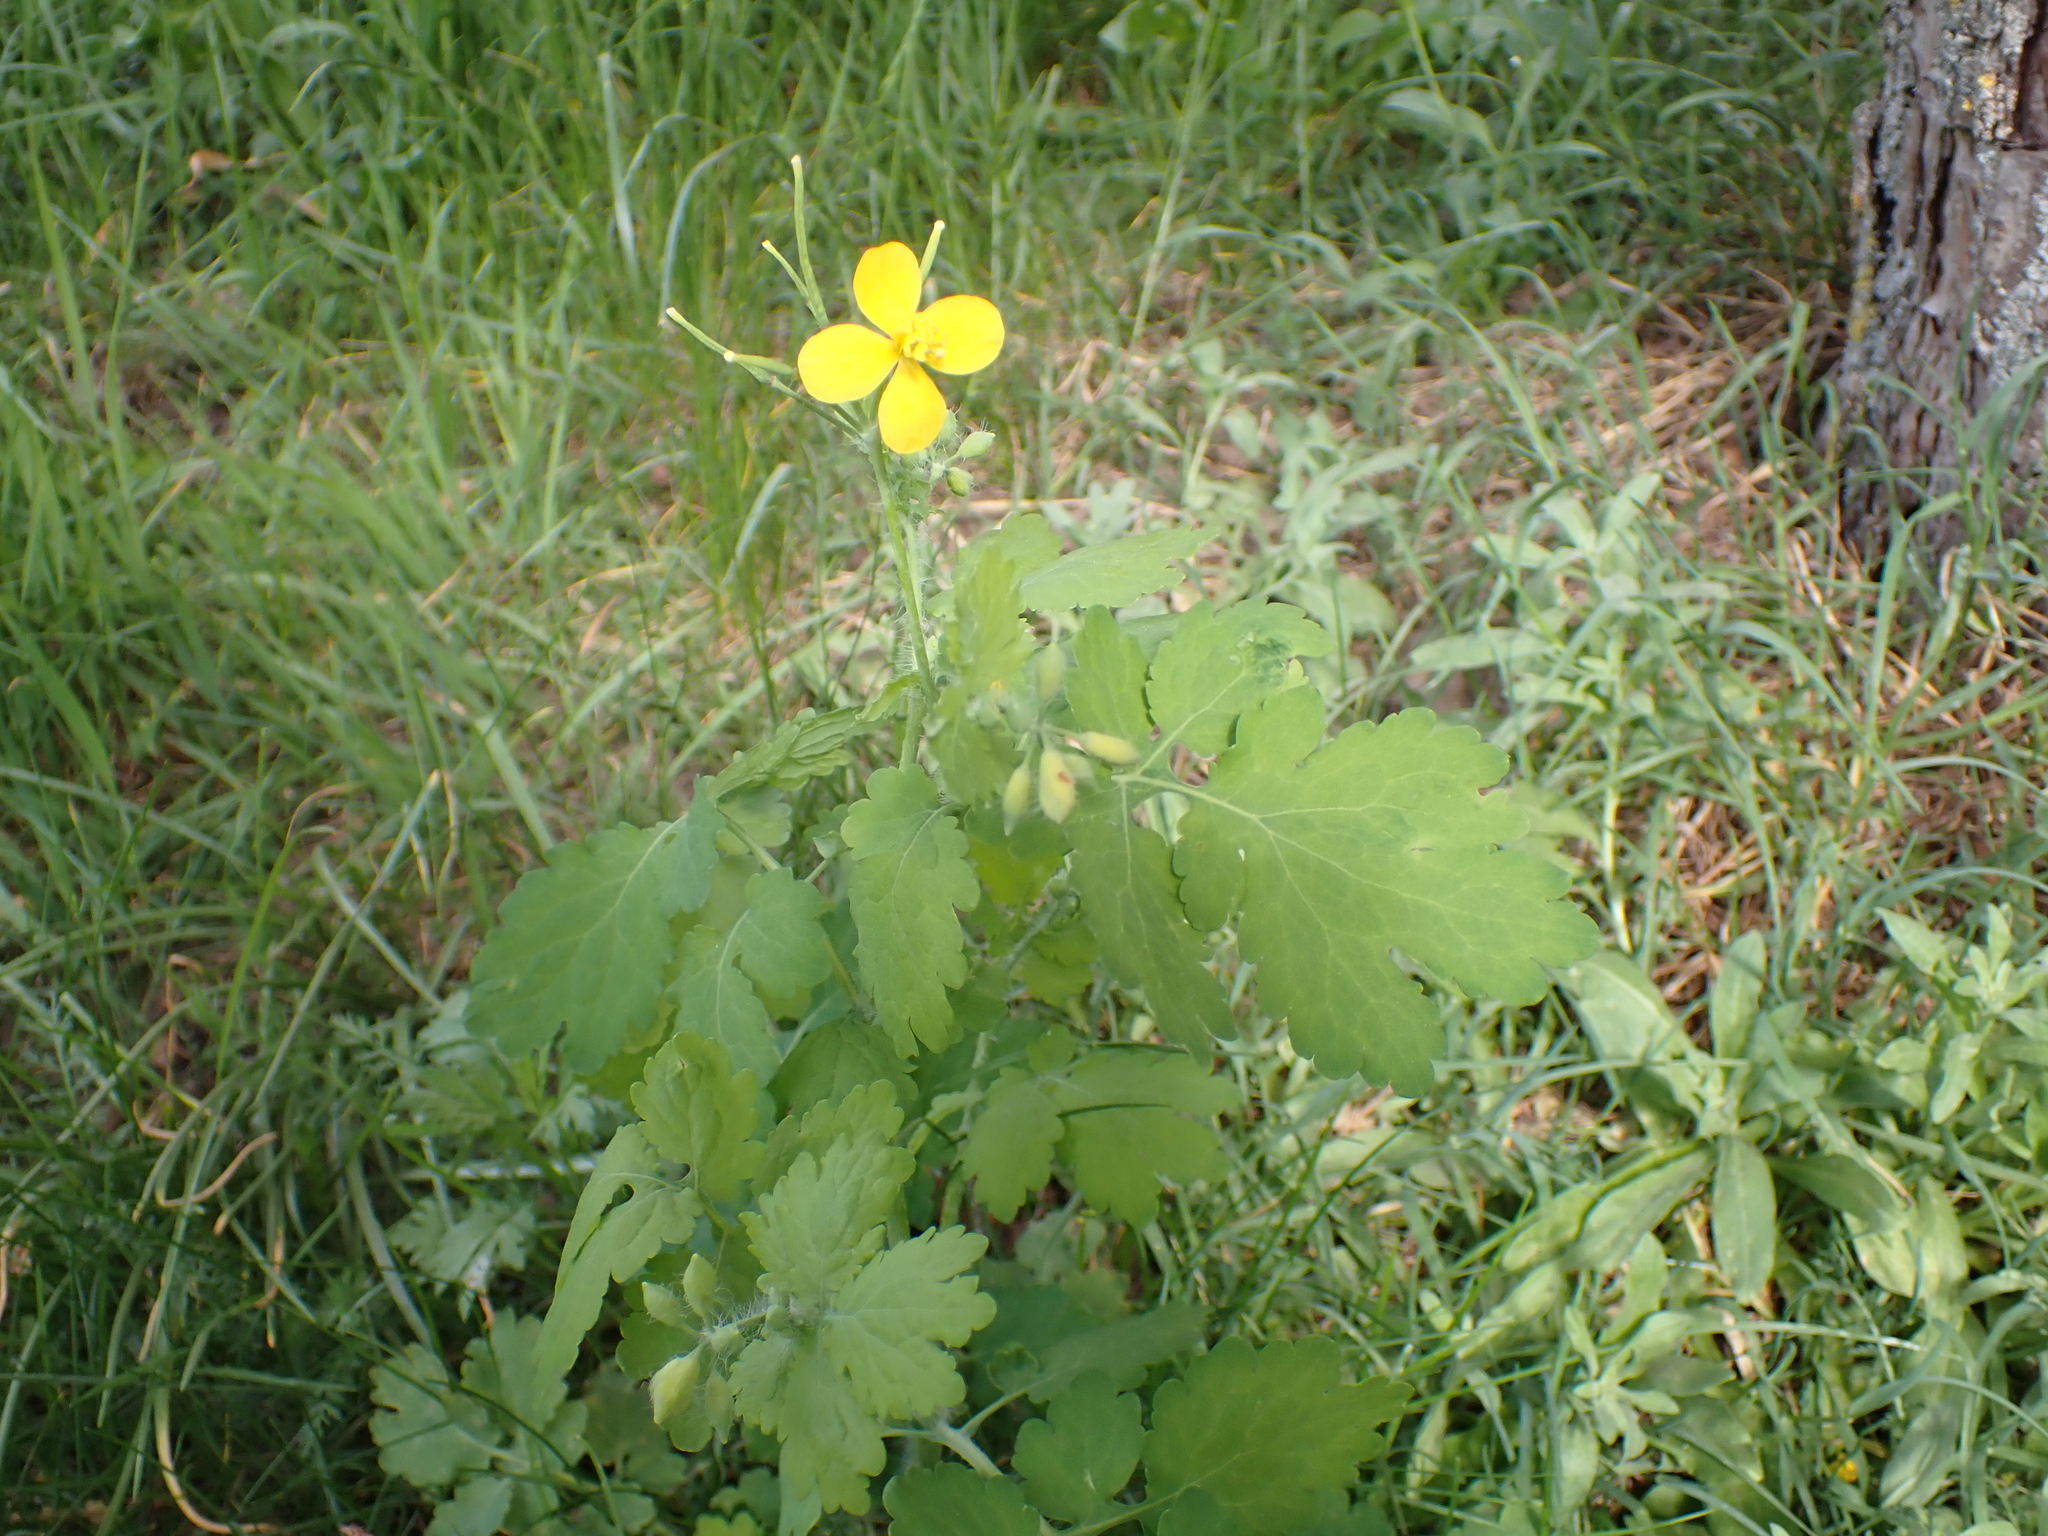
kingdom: Plantae
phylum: Tracheophyta
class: Magnoliopsida
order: Ranunculales
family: Papaveraceae
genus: Chelidonium
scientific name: Chelidonium majus
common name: Greater celandine
